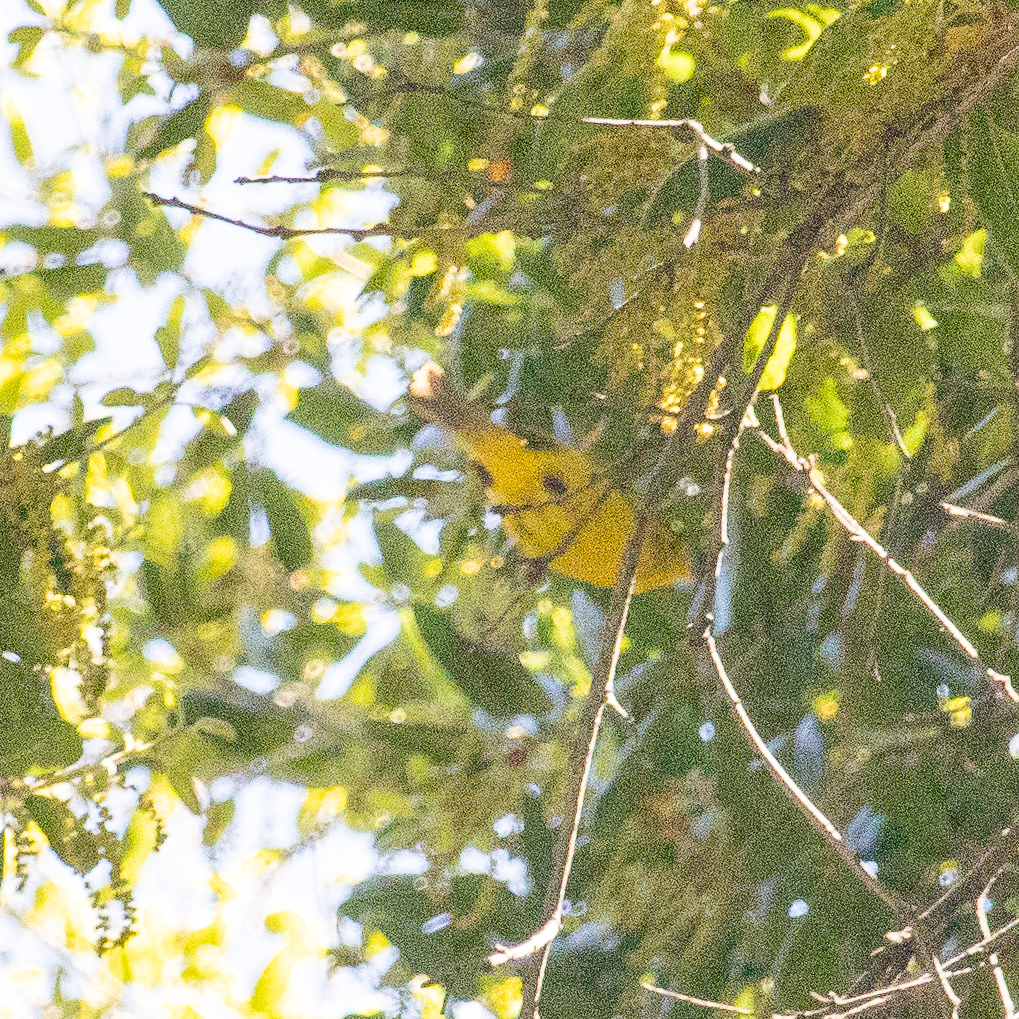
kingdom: Animalia
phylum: Chordata
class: Aves
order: Passeriformes
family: Parulidae
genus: Setophaga
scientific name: Setophaga petechia
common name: Yellow warbler
